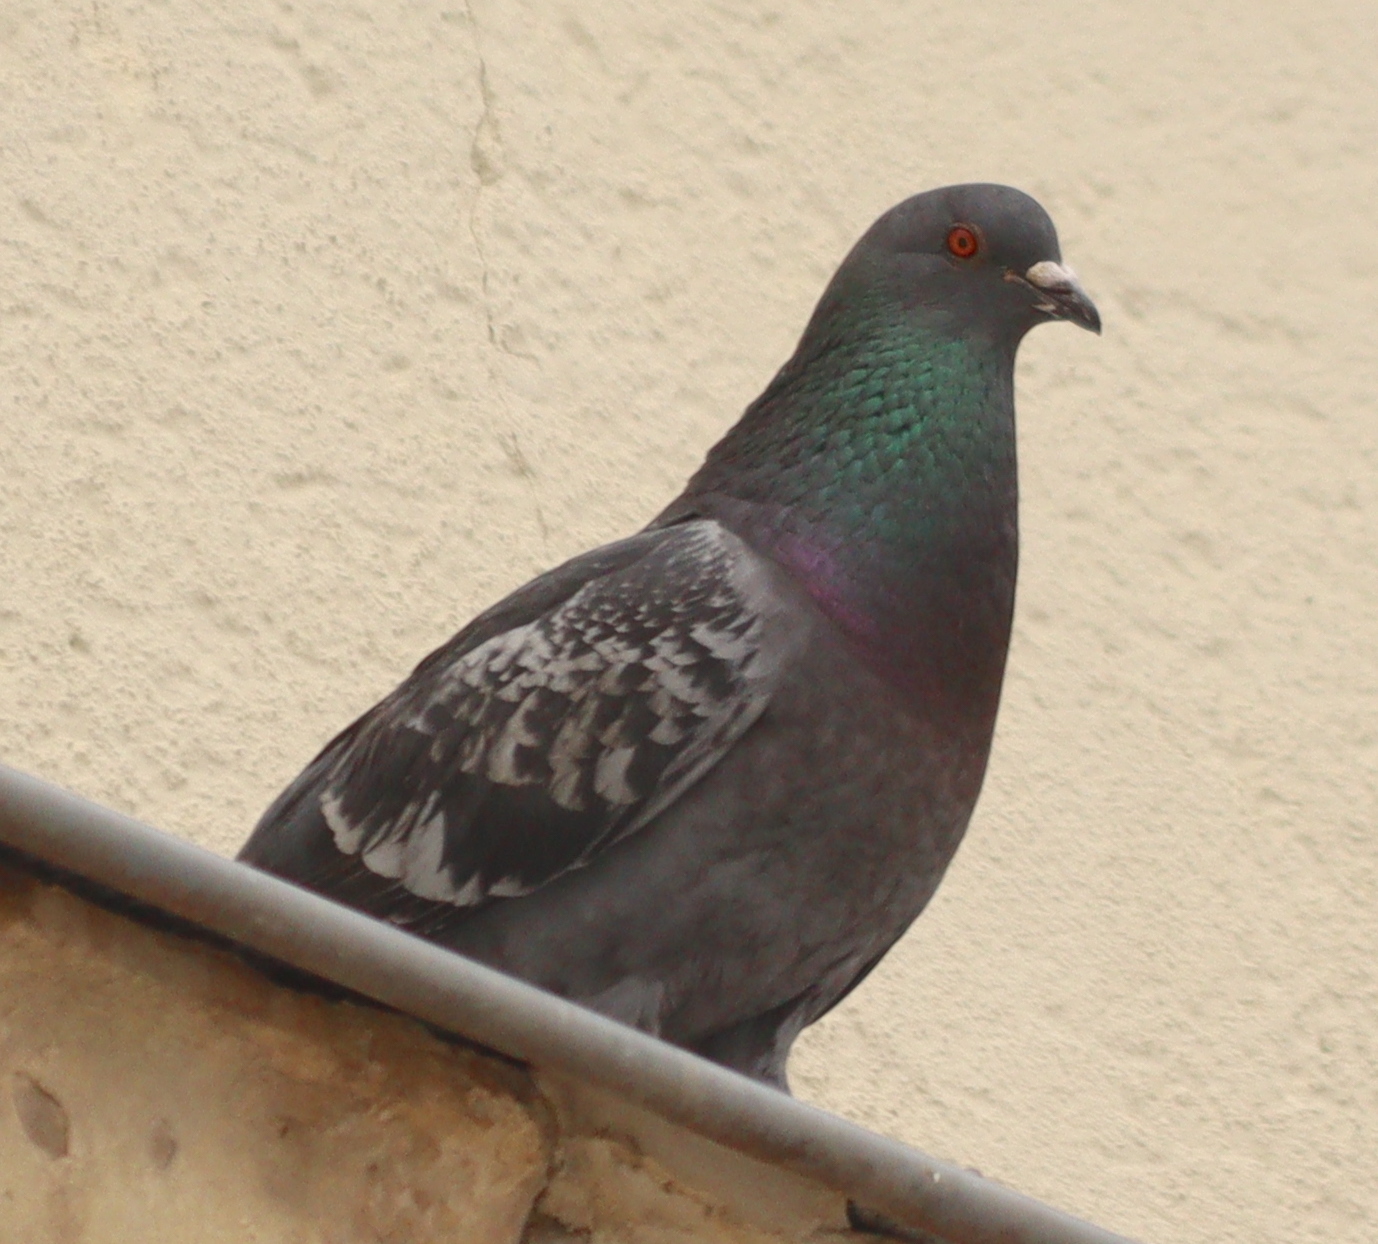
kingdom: Animalia
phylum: Chordata
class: Aves
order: Columbiformes
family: Columbidae
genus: Columba
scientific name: Columba livia
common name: Rock pigeon
